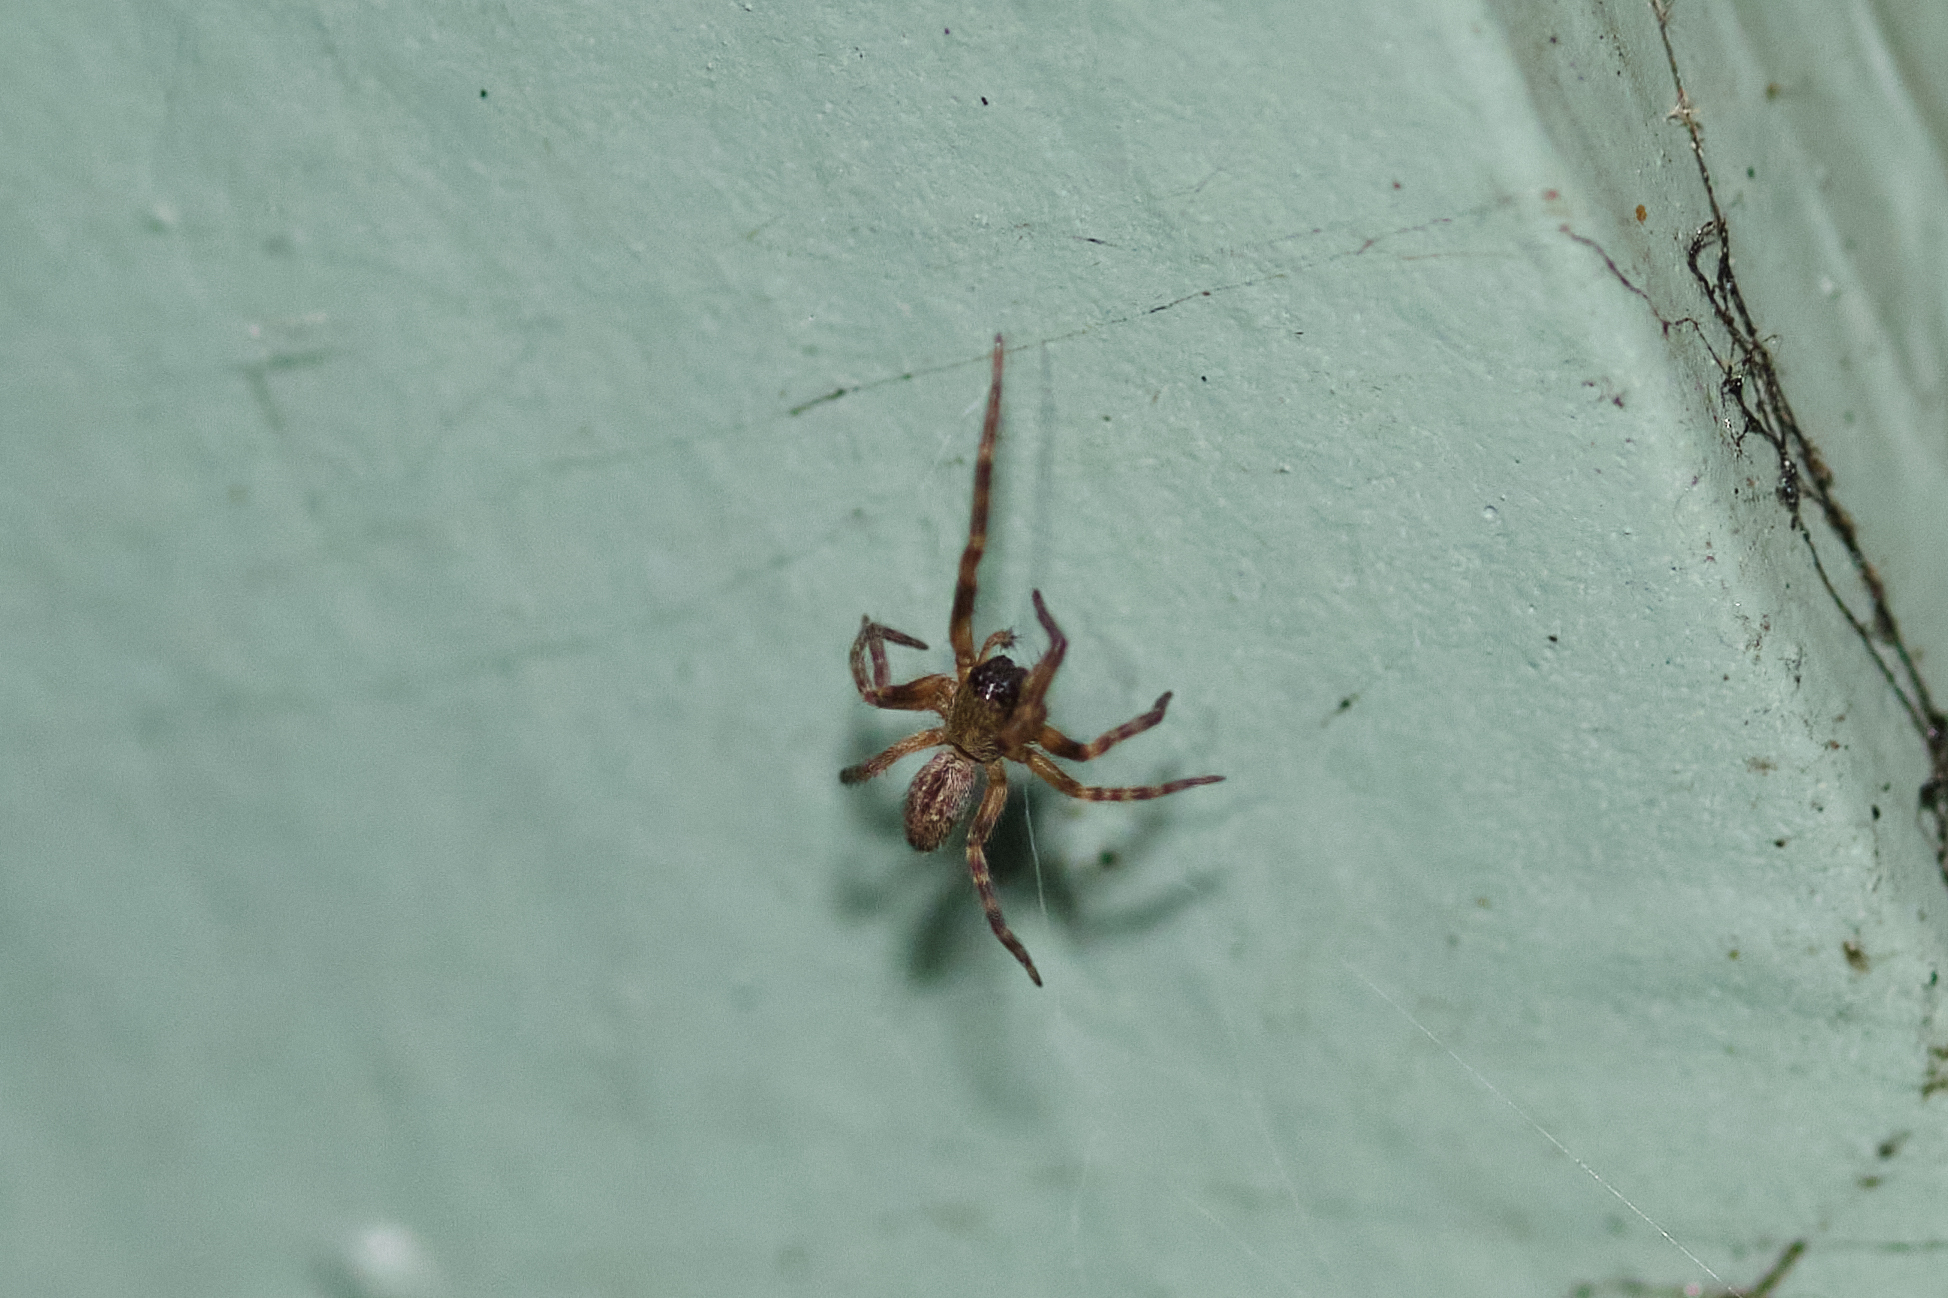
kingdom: Animalia
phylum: Arthropoda
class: Arachnida
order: Araneae
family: Desidae
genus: Badumna
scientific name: Badumna longinqua
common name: Gray house spider
